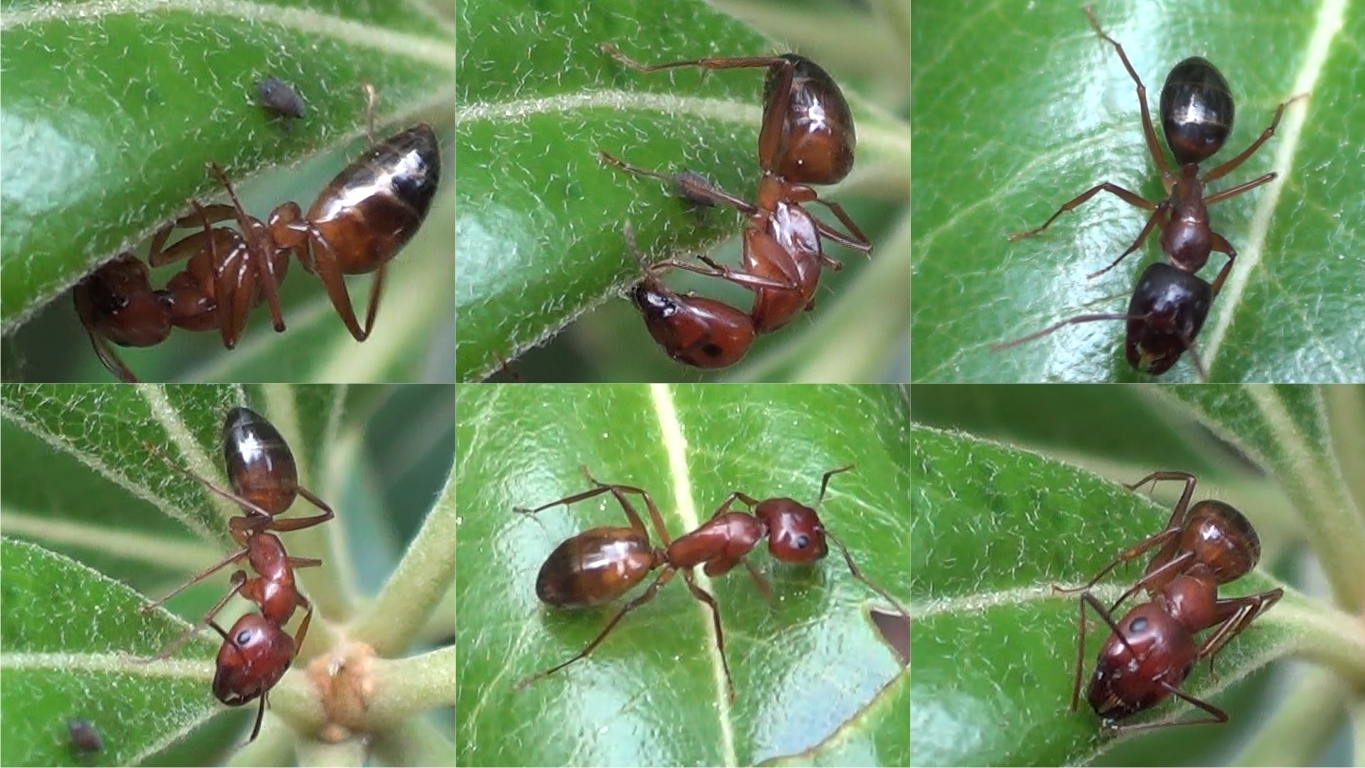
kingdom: Animalia
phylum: Arthropoda
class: Insecta
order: Hymenoptera
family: Formicidae
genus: Camponotus
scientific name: Camponotus nylanderi
